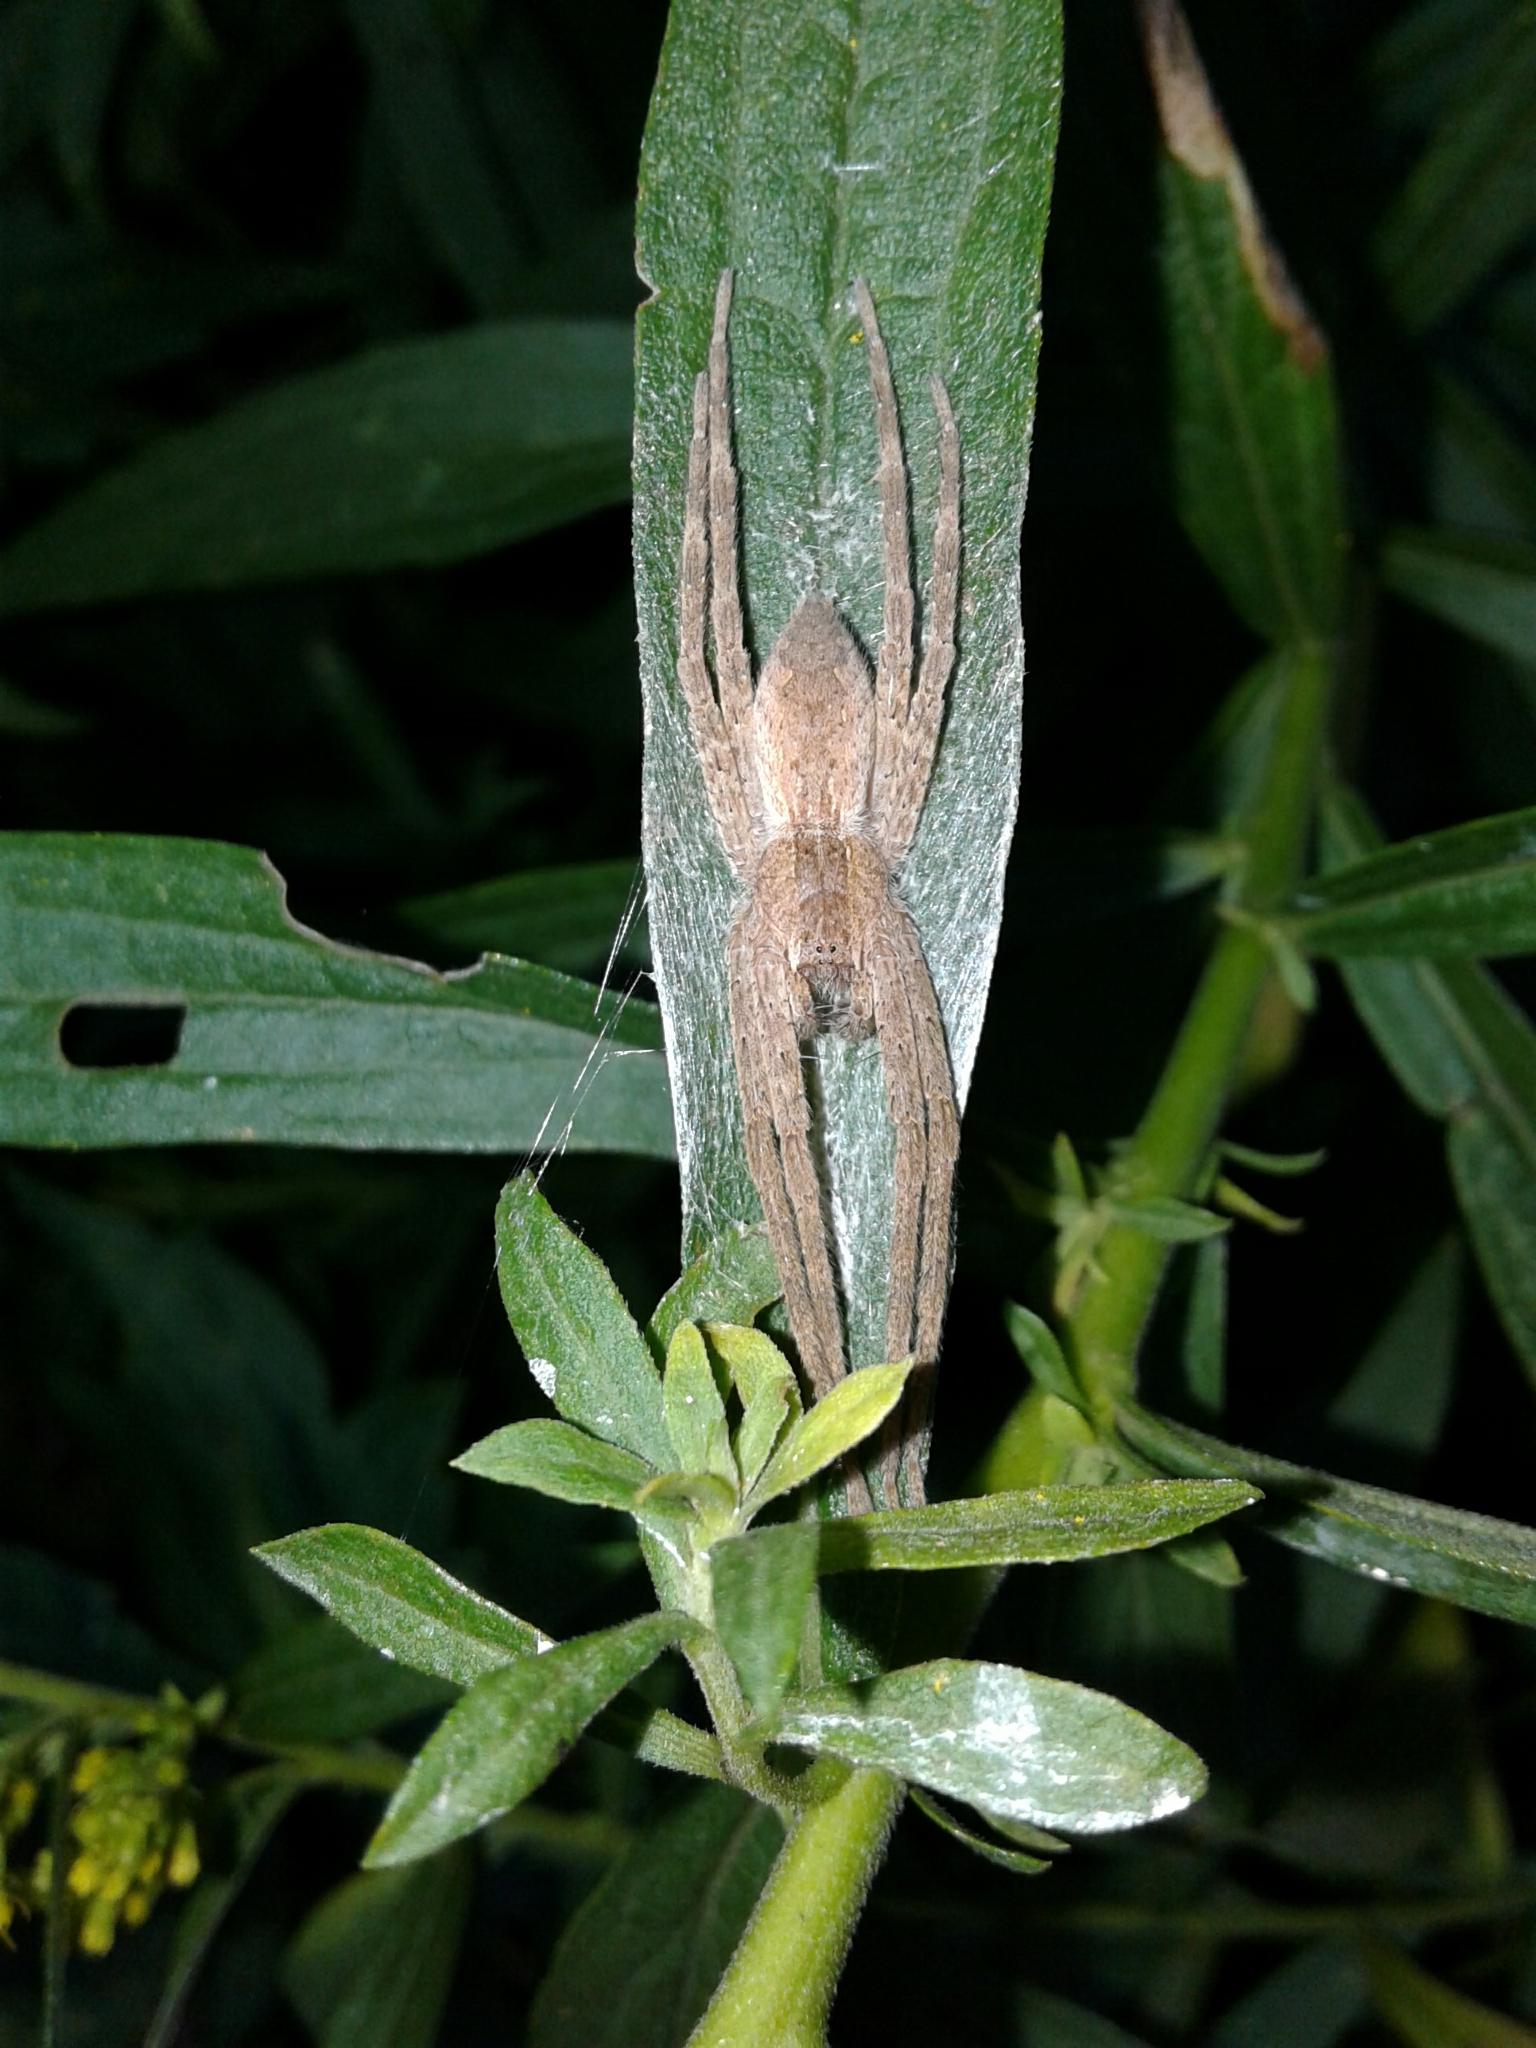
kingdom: Animalia
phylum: Arthropoda
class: Arachnida
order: Araneae
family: Pisauridae
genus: Pisaurina
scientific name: Pisaurina mira
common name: American nursery web spider
